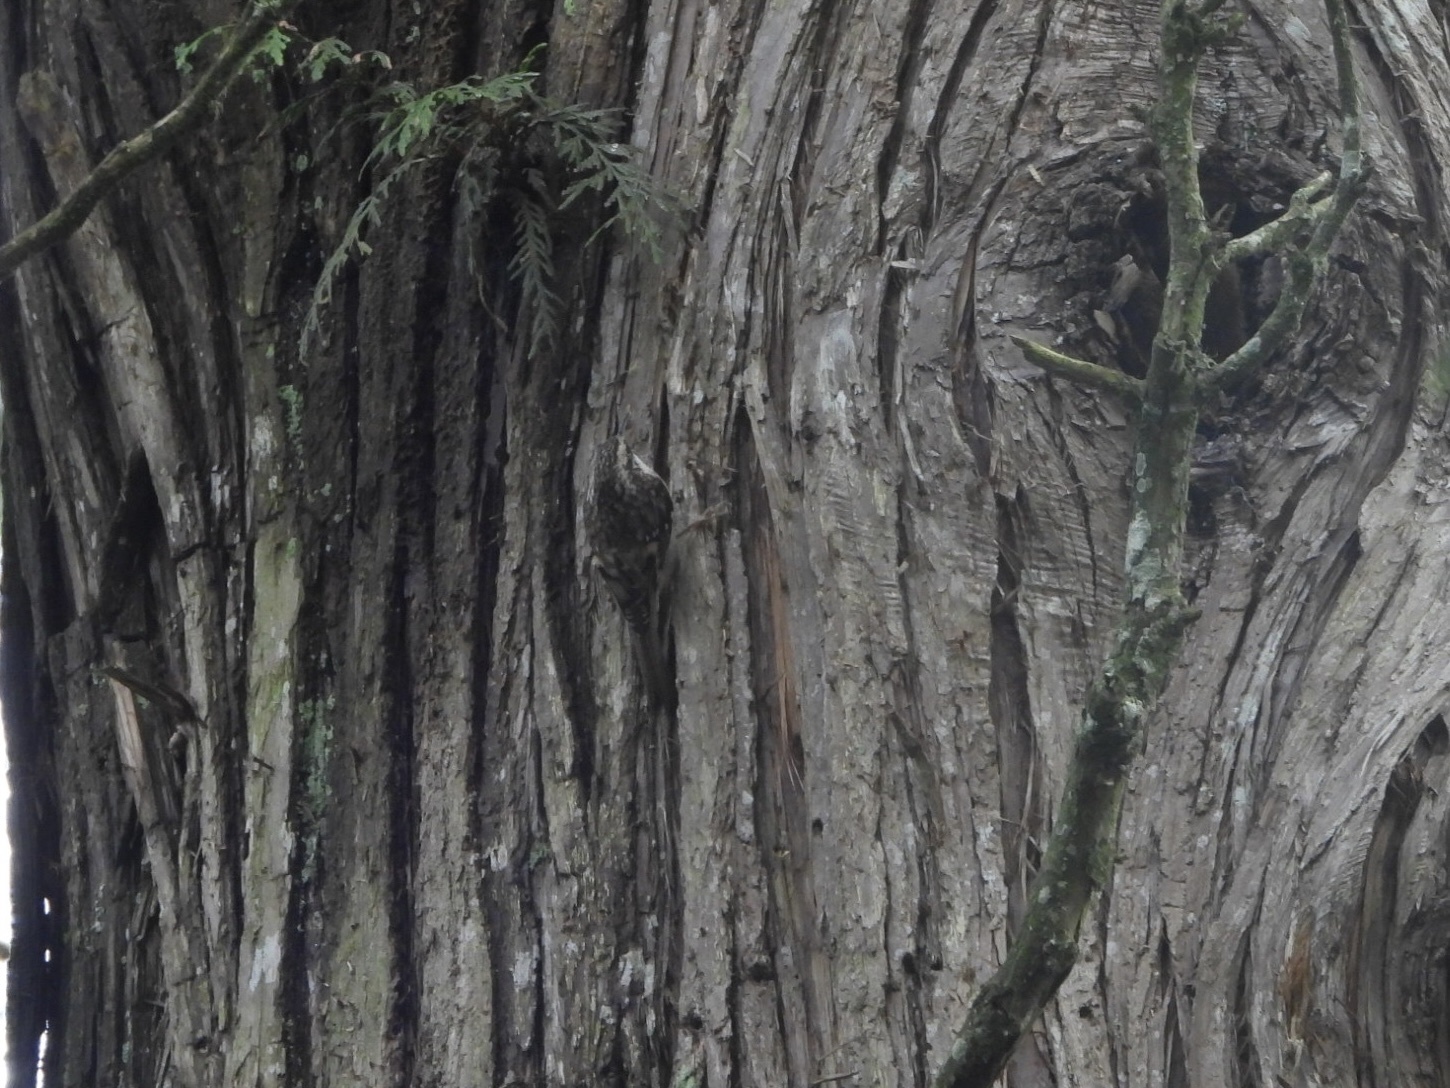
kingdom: Animalia
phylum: Chordata
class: Aves
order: Passeriformes
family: Certhiidae
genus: Certhia
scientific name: Certhia americana
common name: Brown creeper
